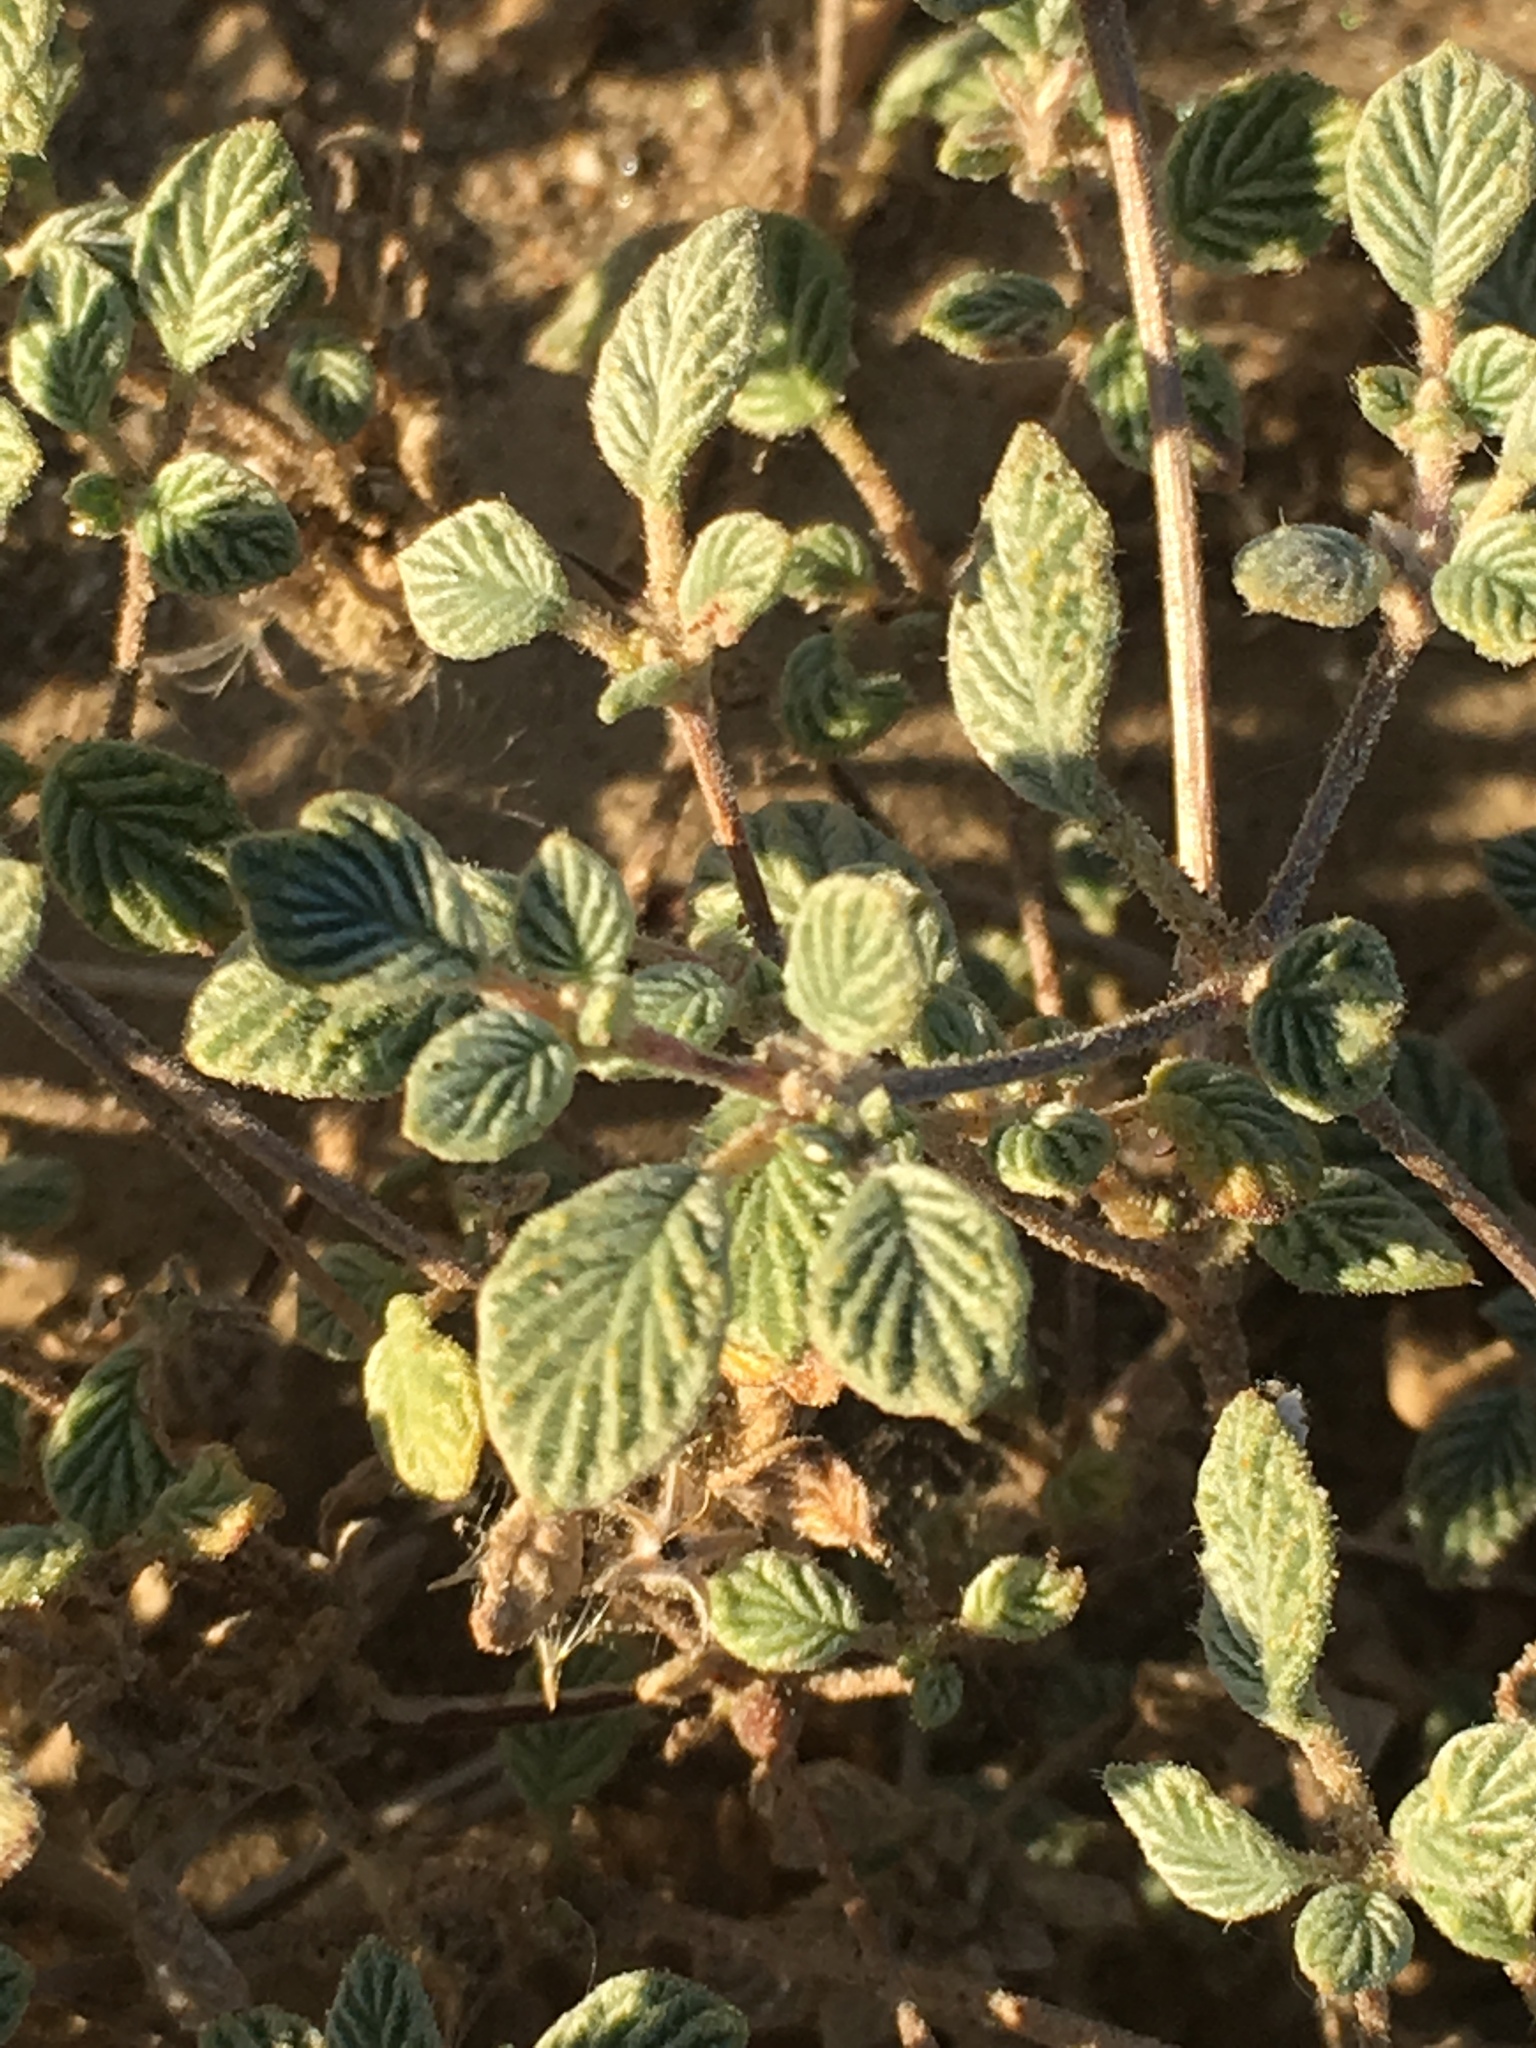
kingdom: Plantae
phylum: Tracheophyta
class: Magnoliopsida
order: Boraginales
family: Ehretiaceae
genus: Tiquilia
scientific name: Tiquilia plicata
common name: Fan-leaf tiquilia
